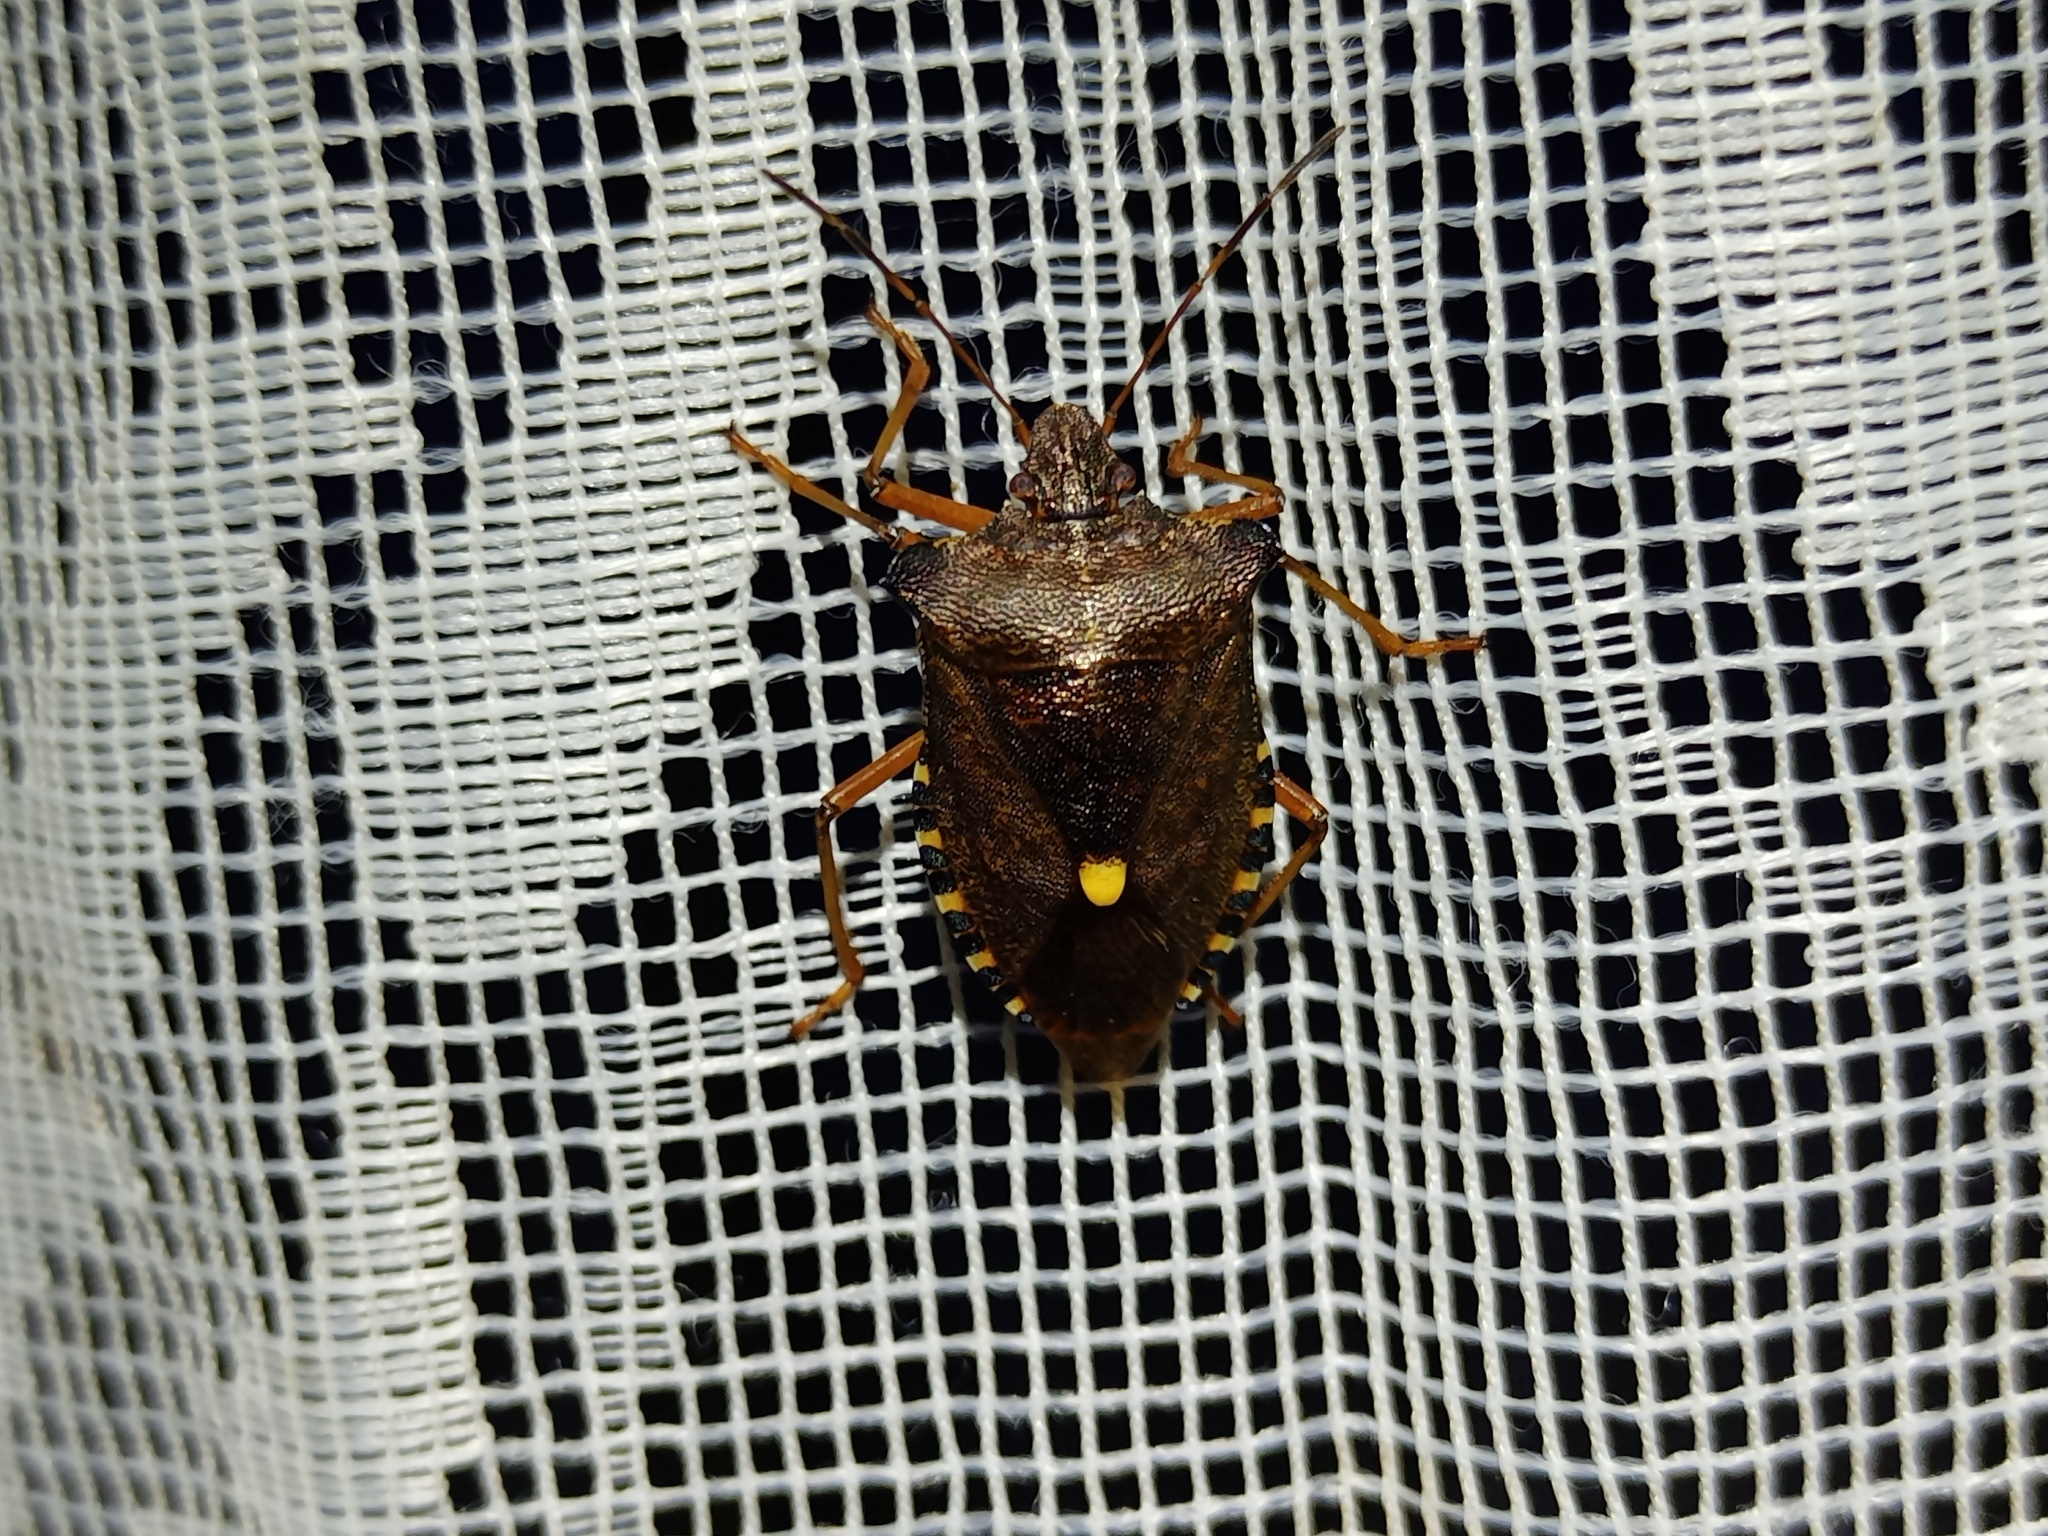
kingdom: Animalia
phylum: Arthropoda
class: Insecta
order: Hemiptera
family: Pentatomidae
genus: Pentatoma
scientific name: Pentatoma rufipes
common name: Forest bug
